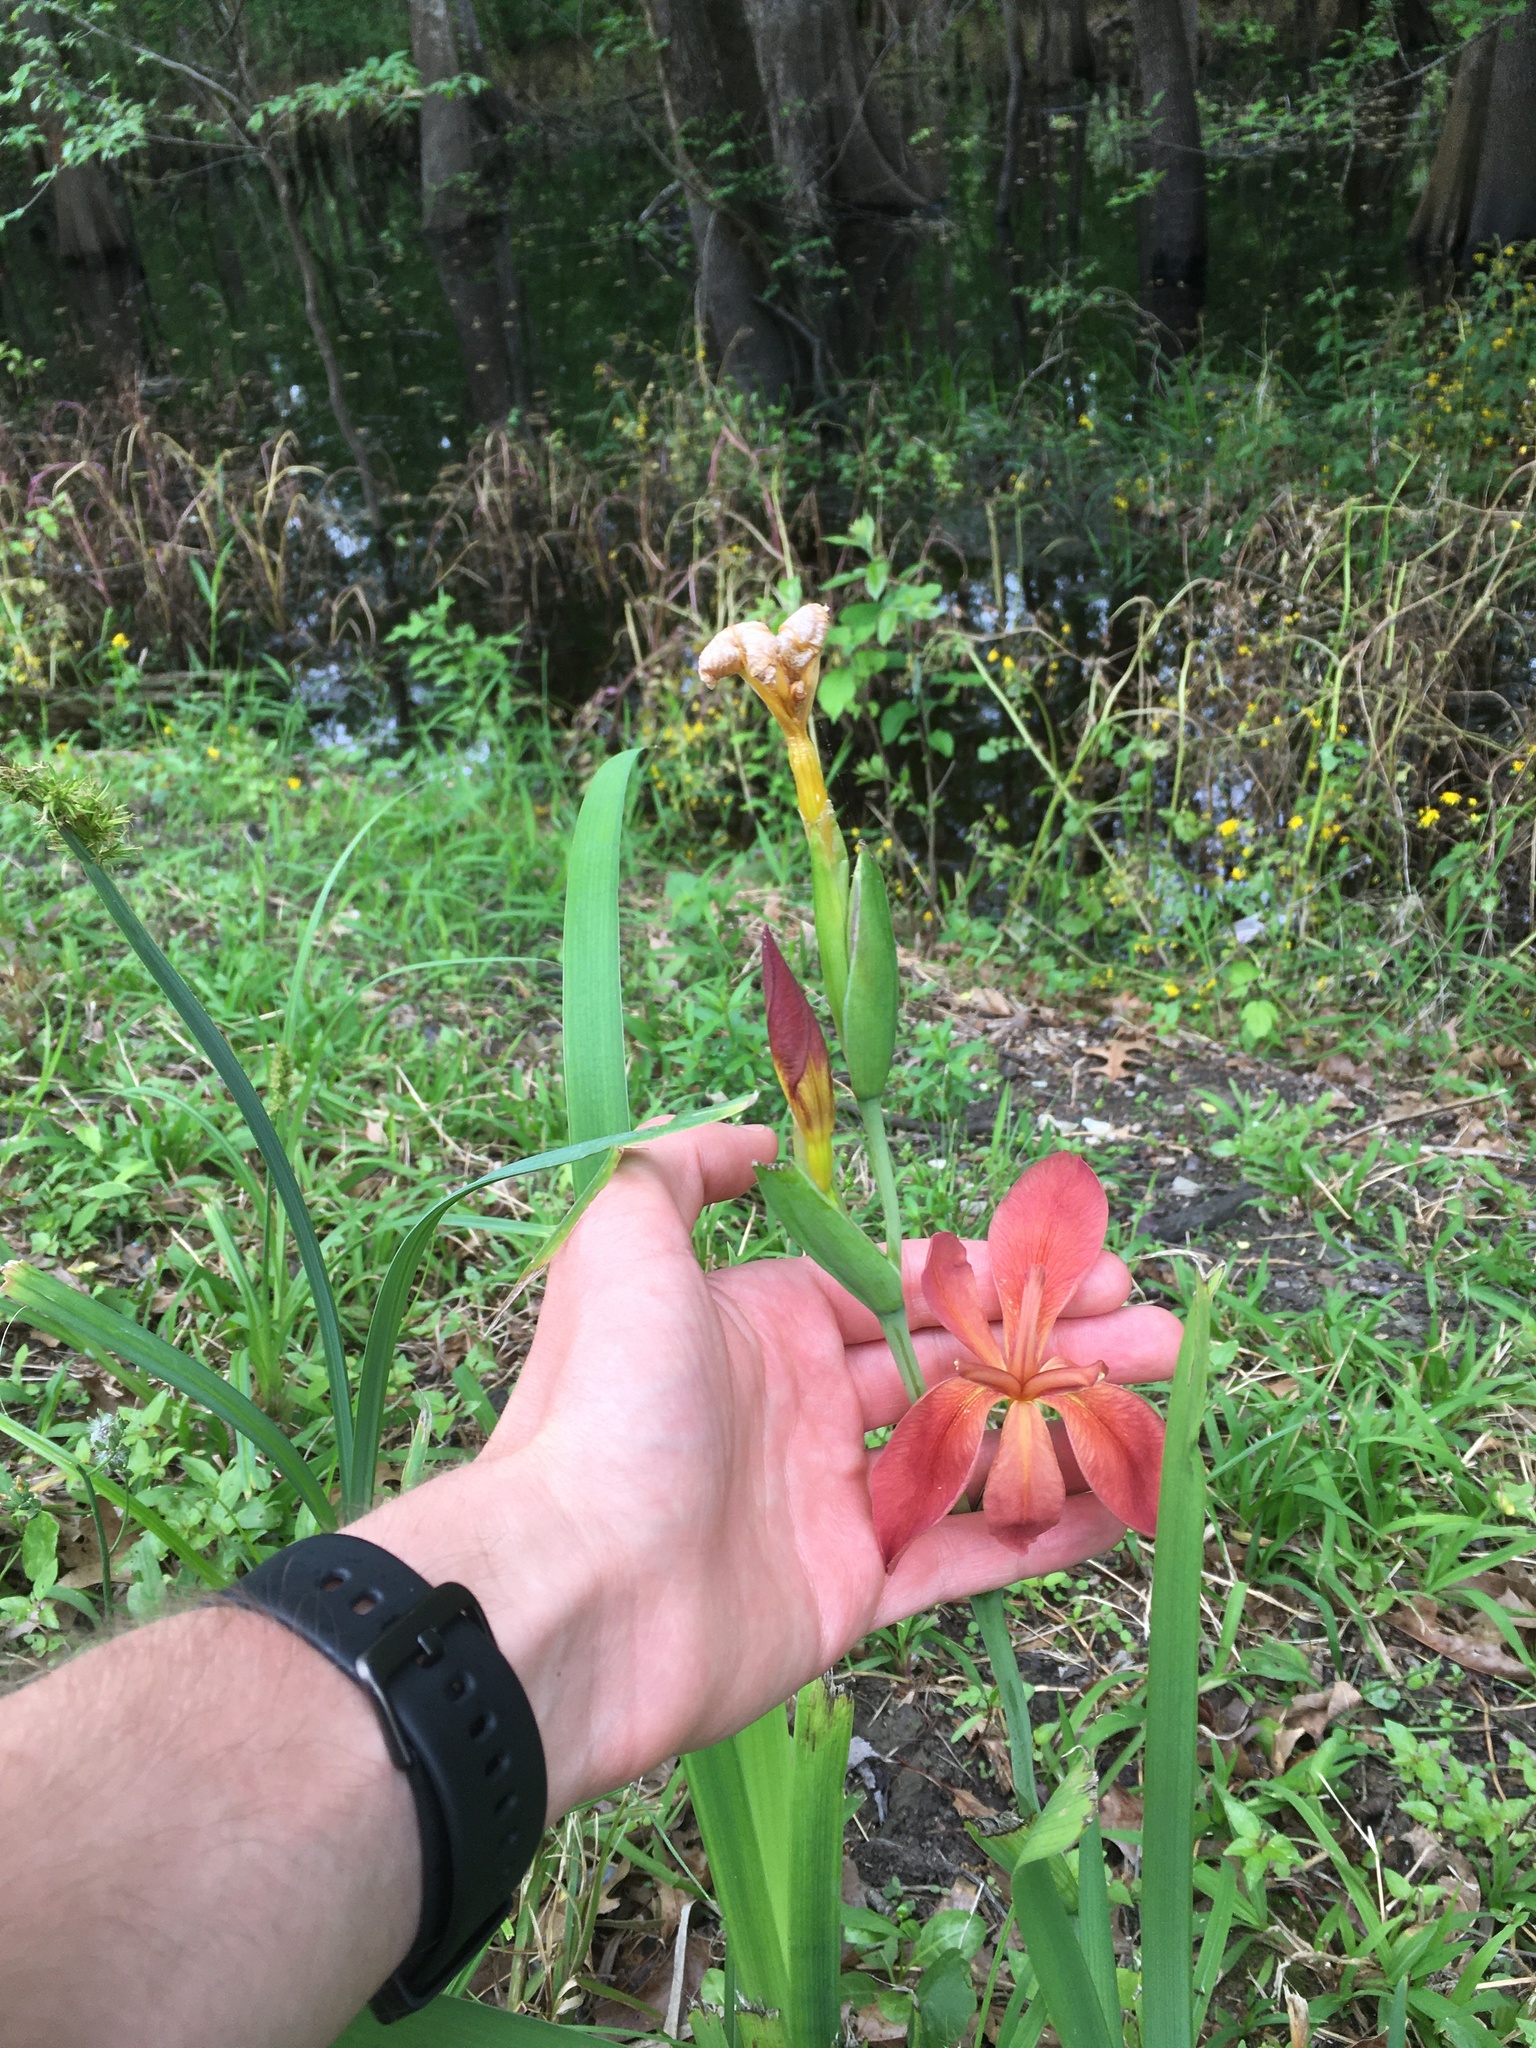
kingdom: Plantae
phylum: Tracheophyta
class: Liliopsida
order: Asparagales
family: Iridaceae
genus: Iris
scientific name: Iris fulva
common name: Copper iris
